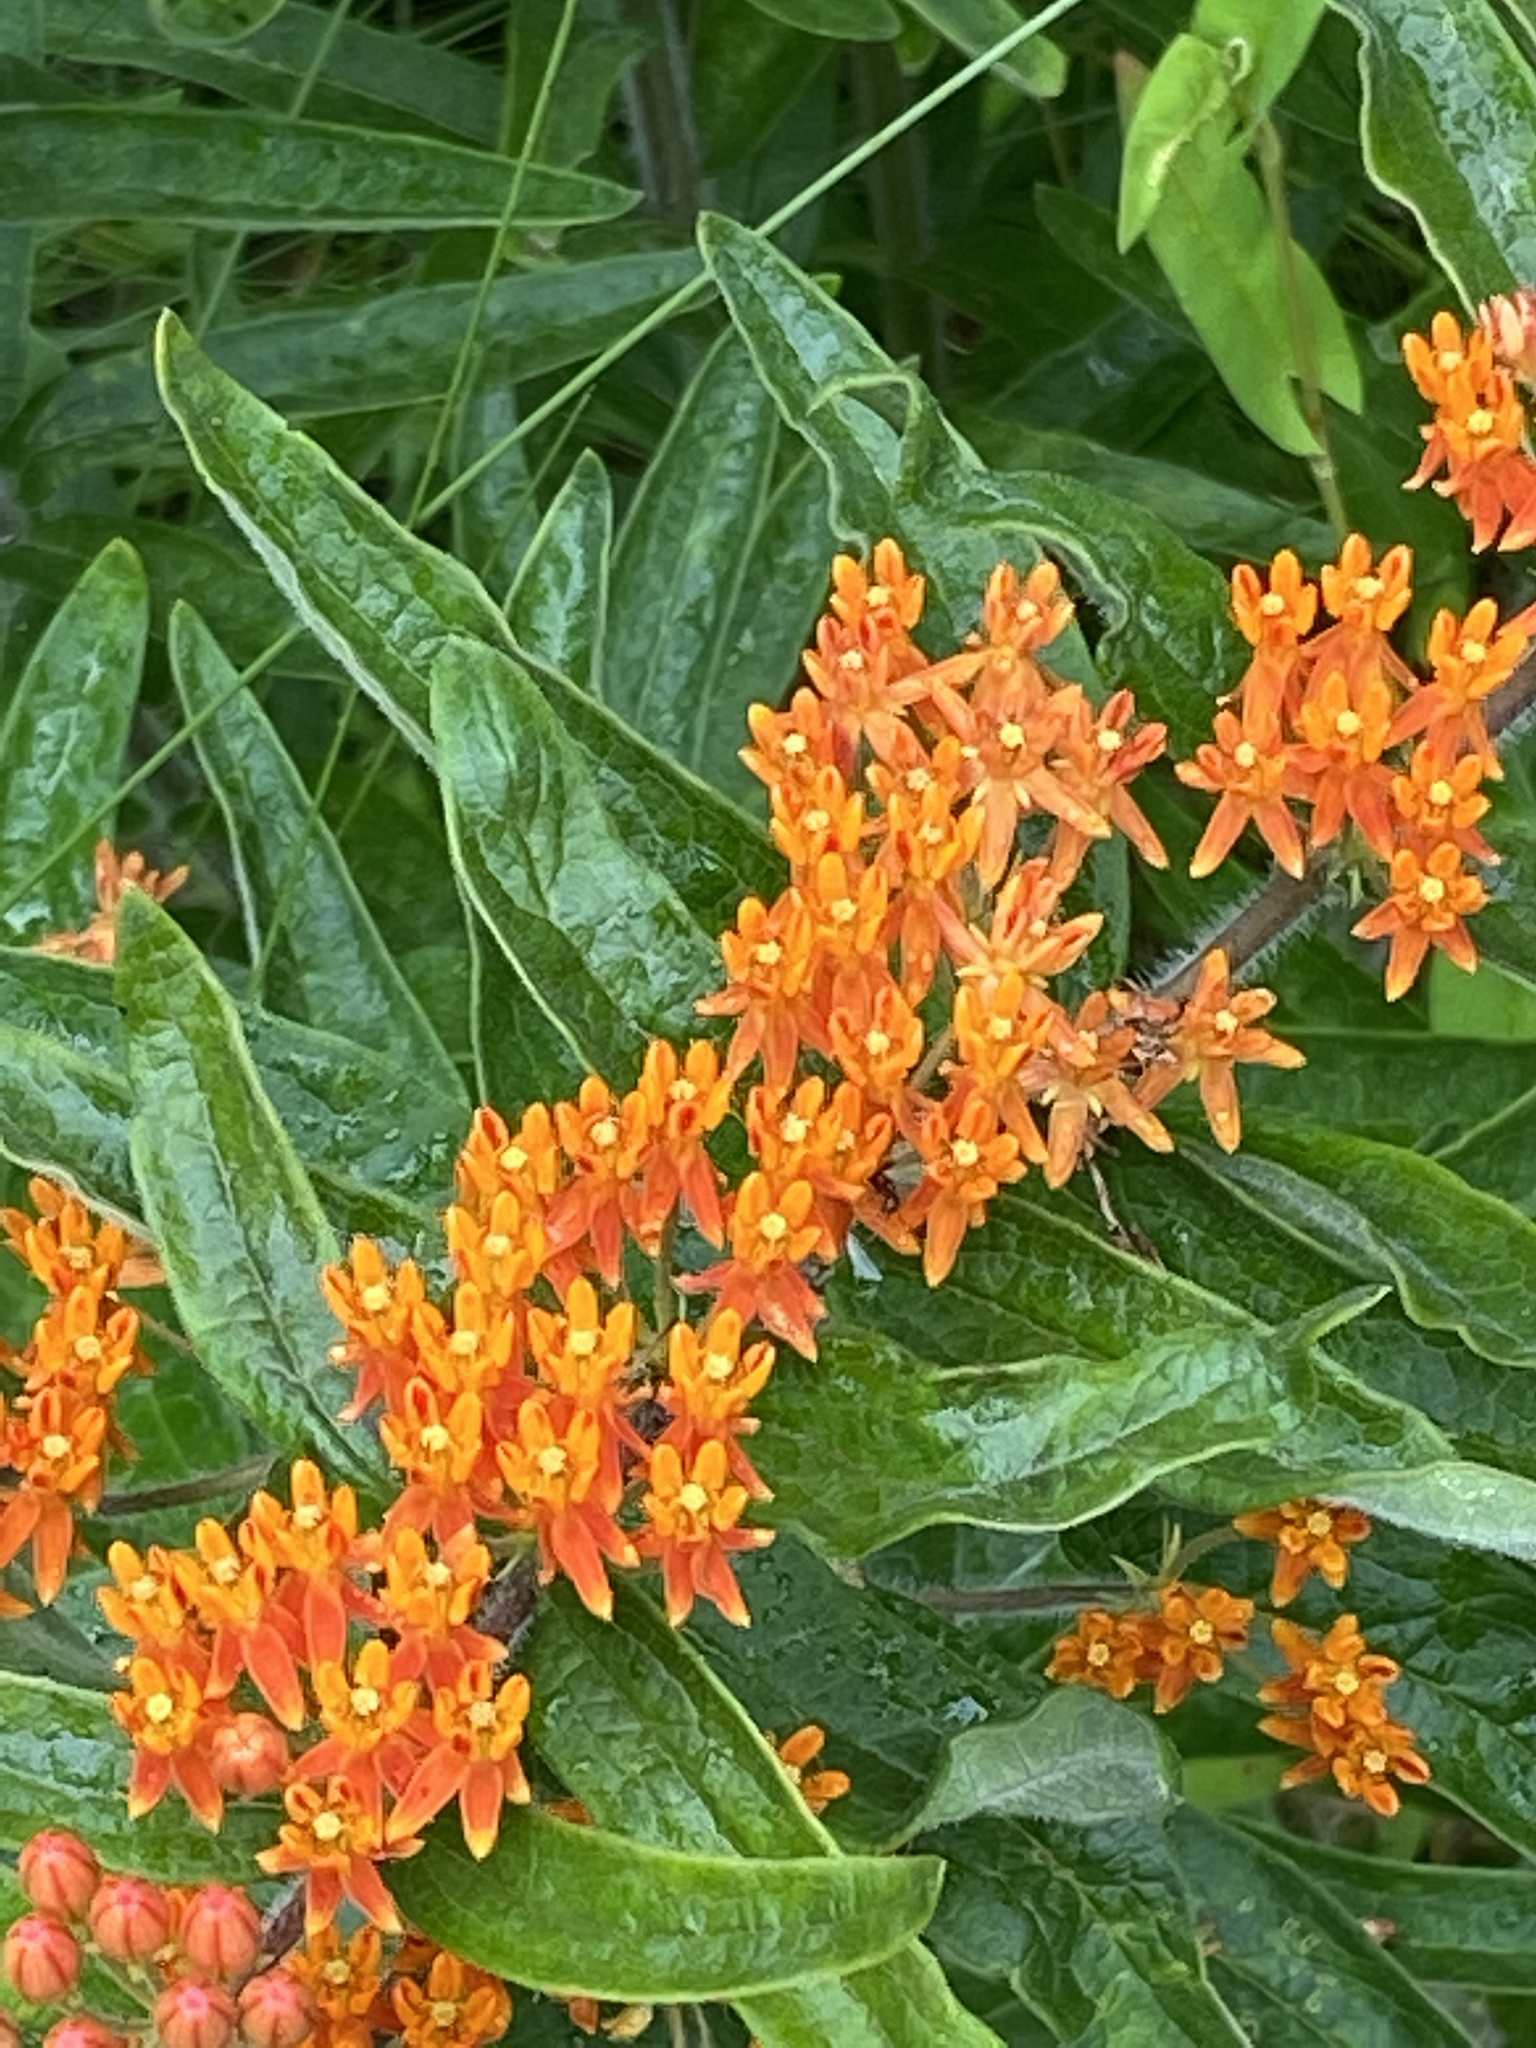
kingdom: Plantae
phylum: Tracheophyta
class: Magnoliopsida
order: Gentianales
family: Apocynaceae
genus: Asclepias
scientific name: Asclepias tuberosa
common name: Butterfly milkweed
